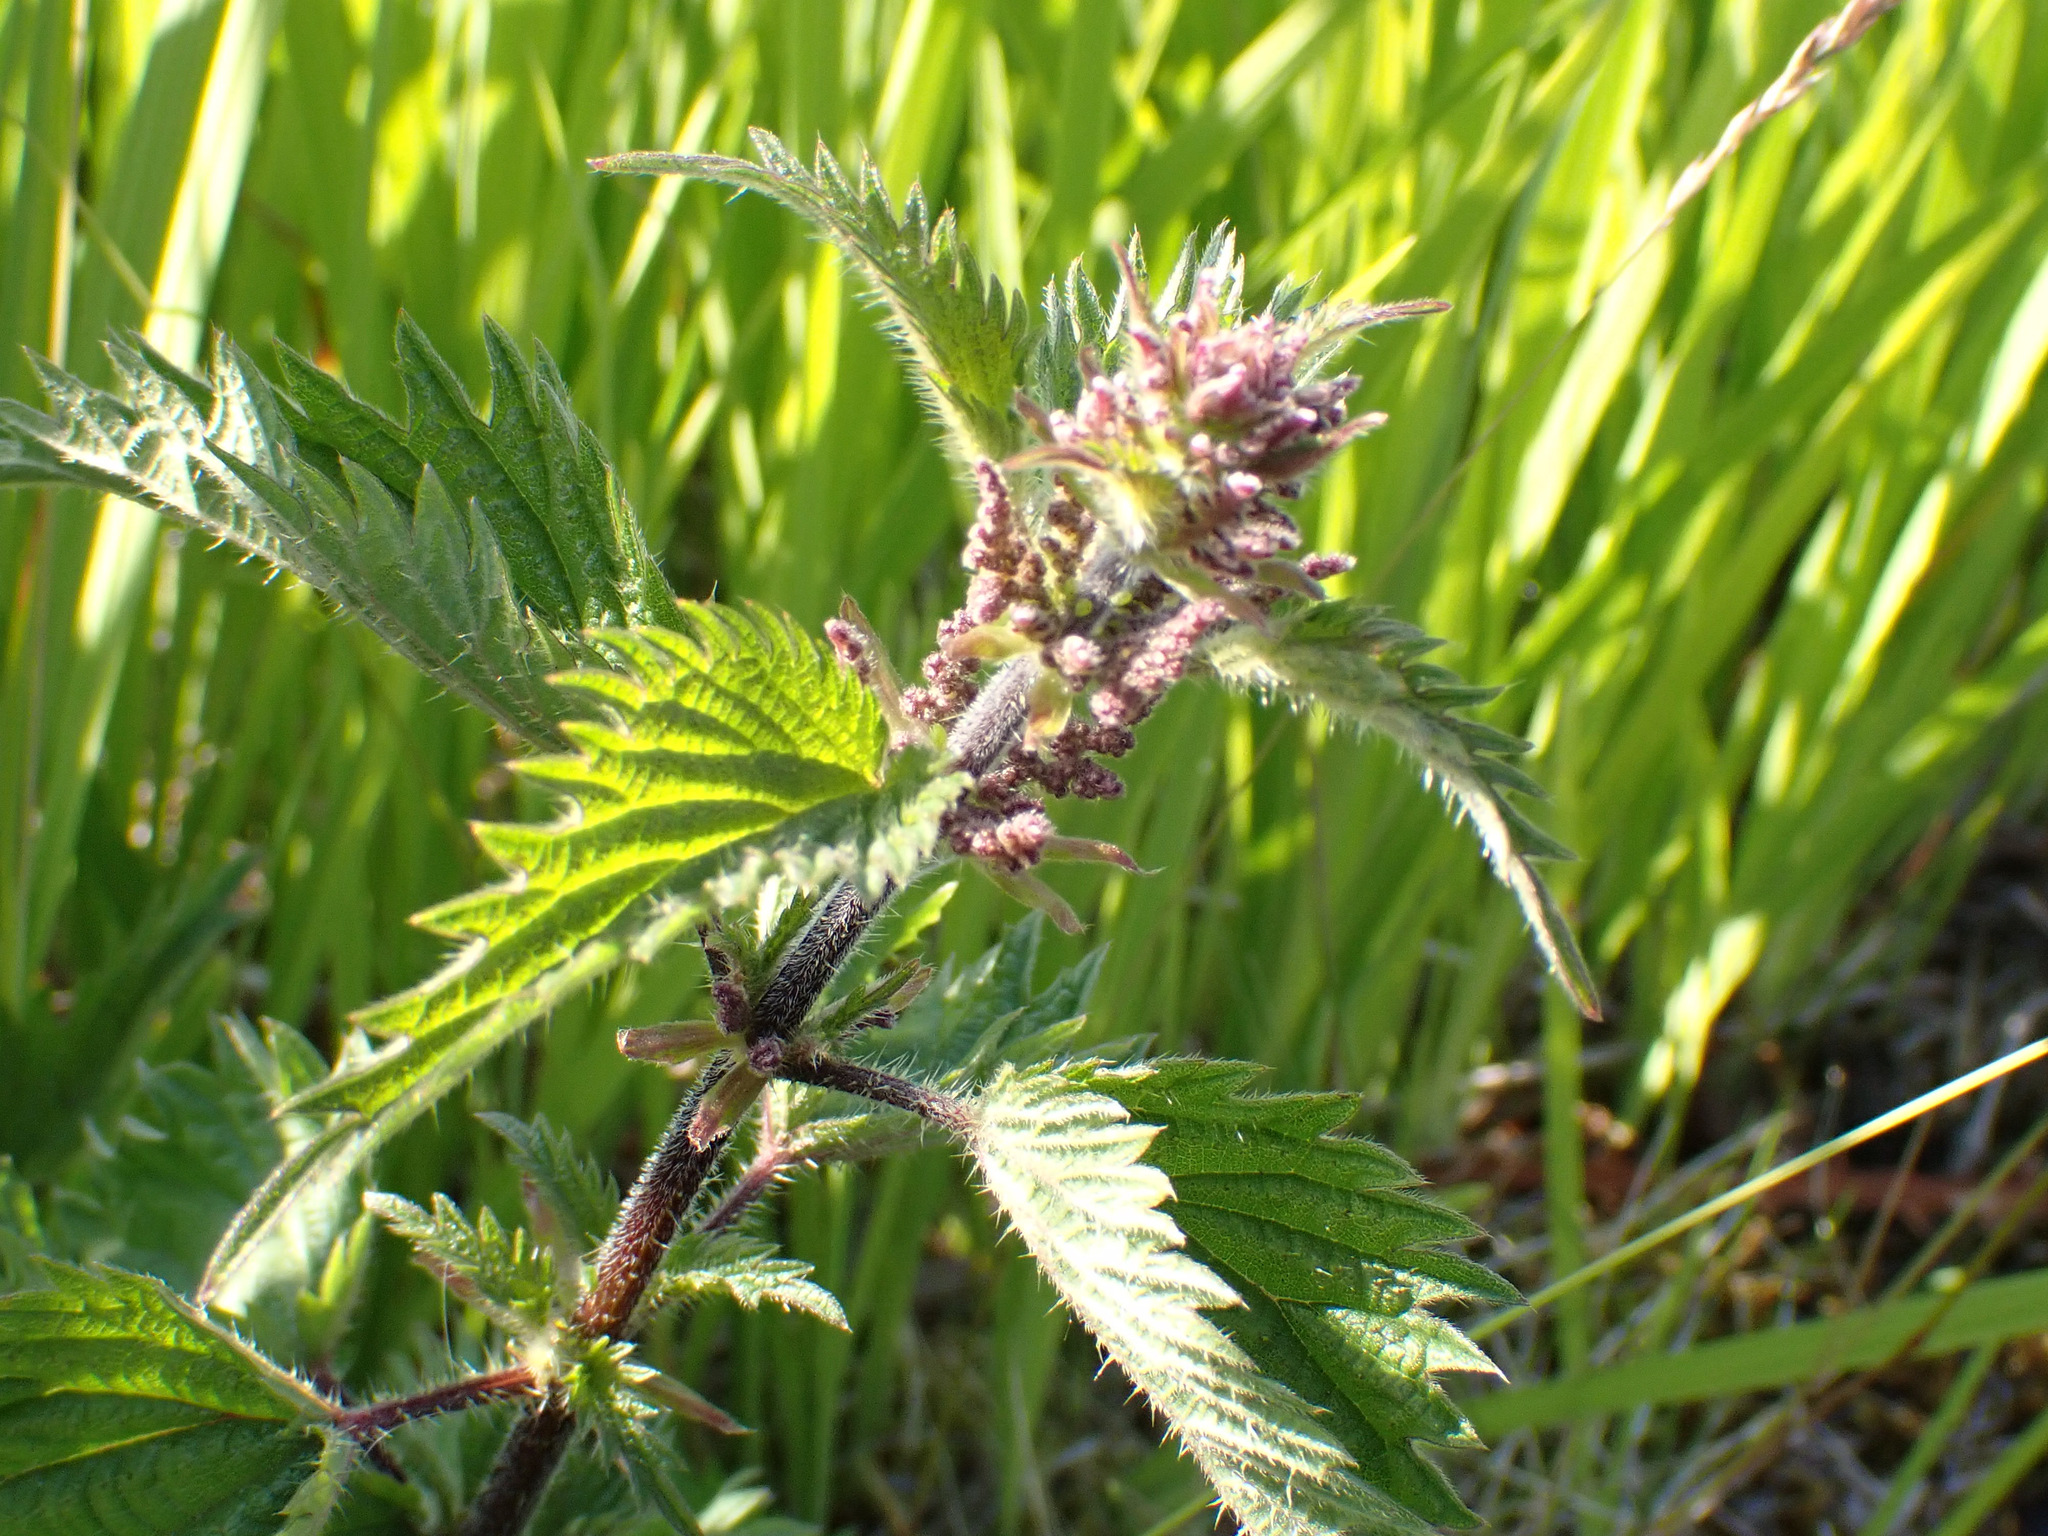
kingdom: Plantae
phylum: Tracheophyta
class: Magnoliopsida
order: Rosales
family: Urticaceae
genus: Urtica
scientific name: Urtica dioica
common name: Common nettle
